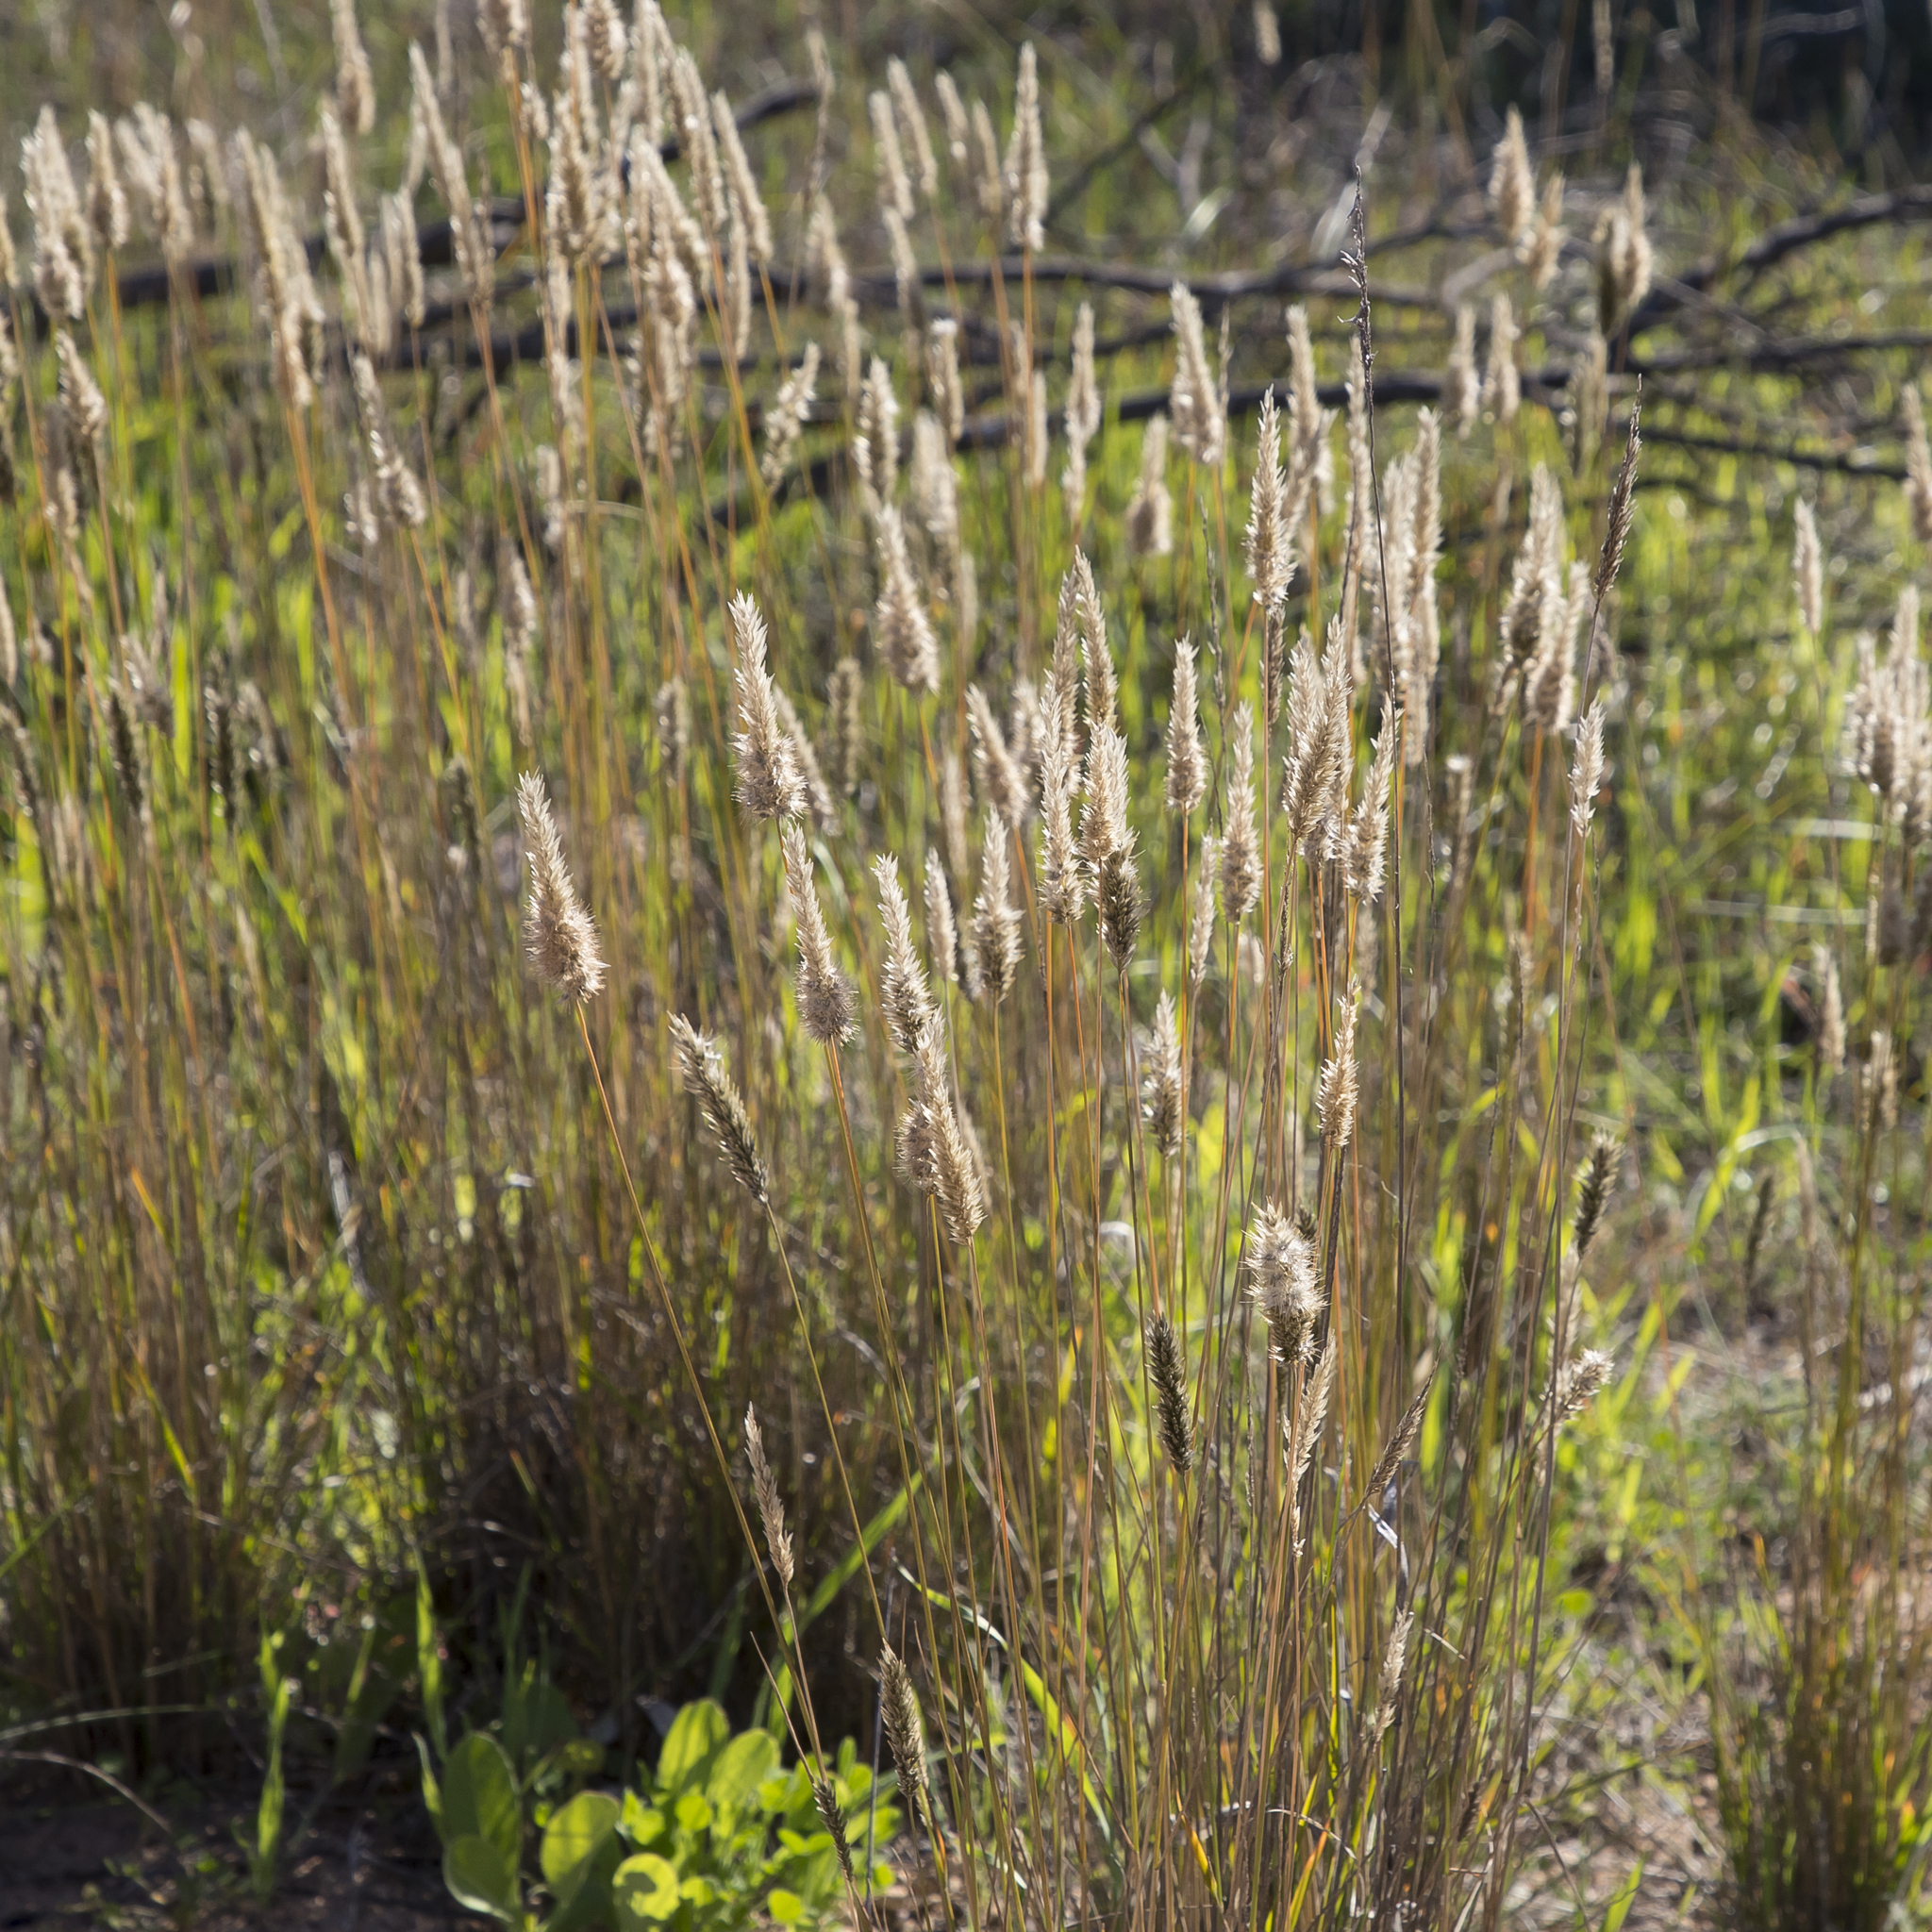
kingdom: Plantae
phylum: Tracheophyta
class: Liliopsida
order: Poales
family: Poaceae
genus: Enneapogon
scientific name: Enneapogon nigricans
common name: Pappus grass
